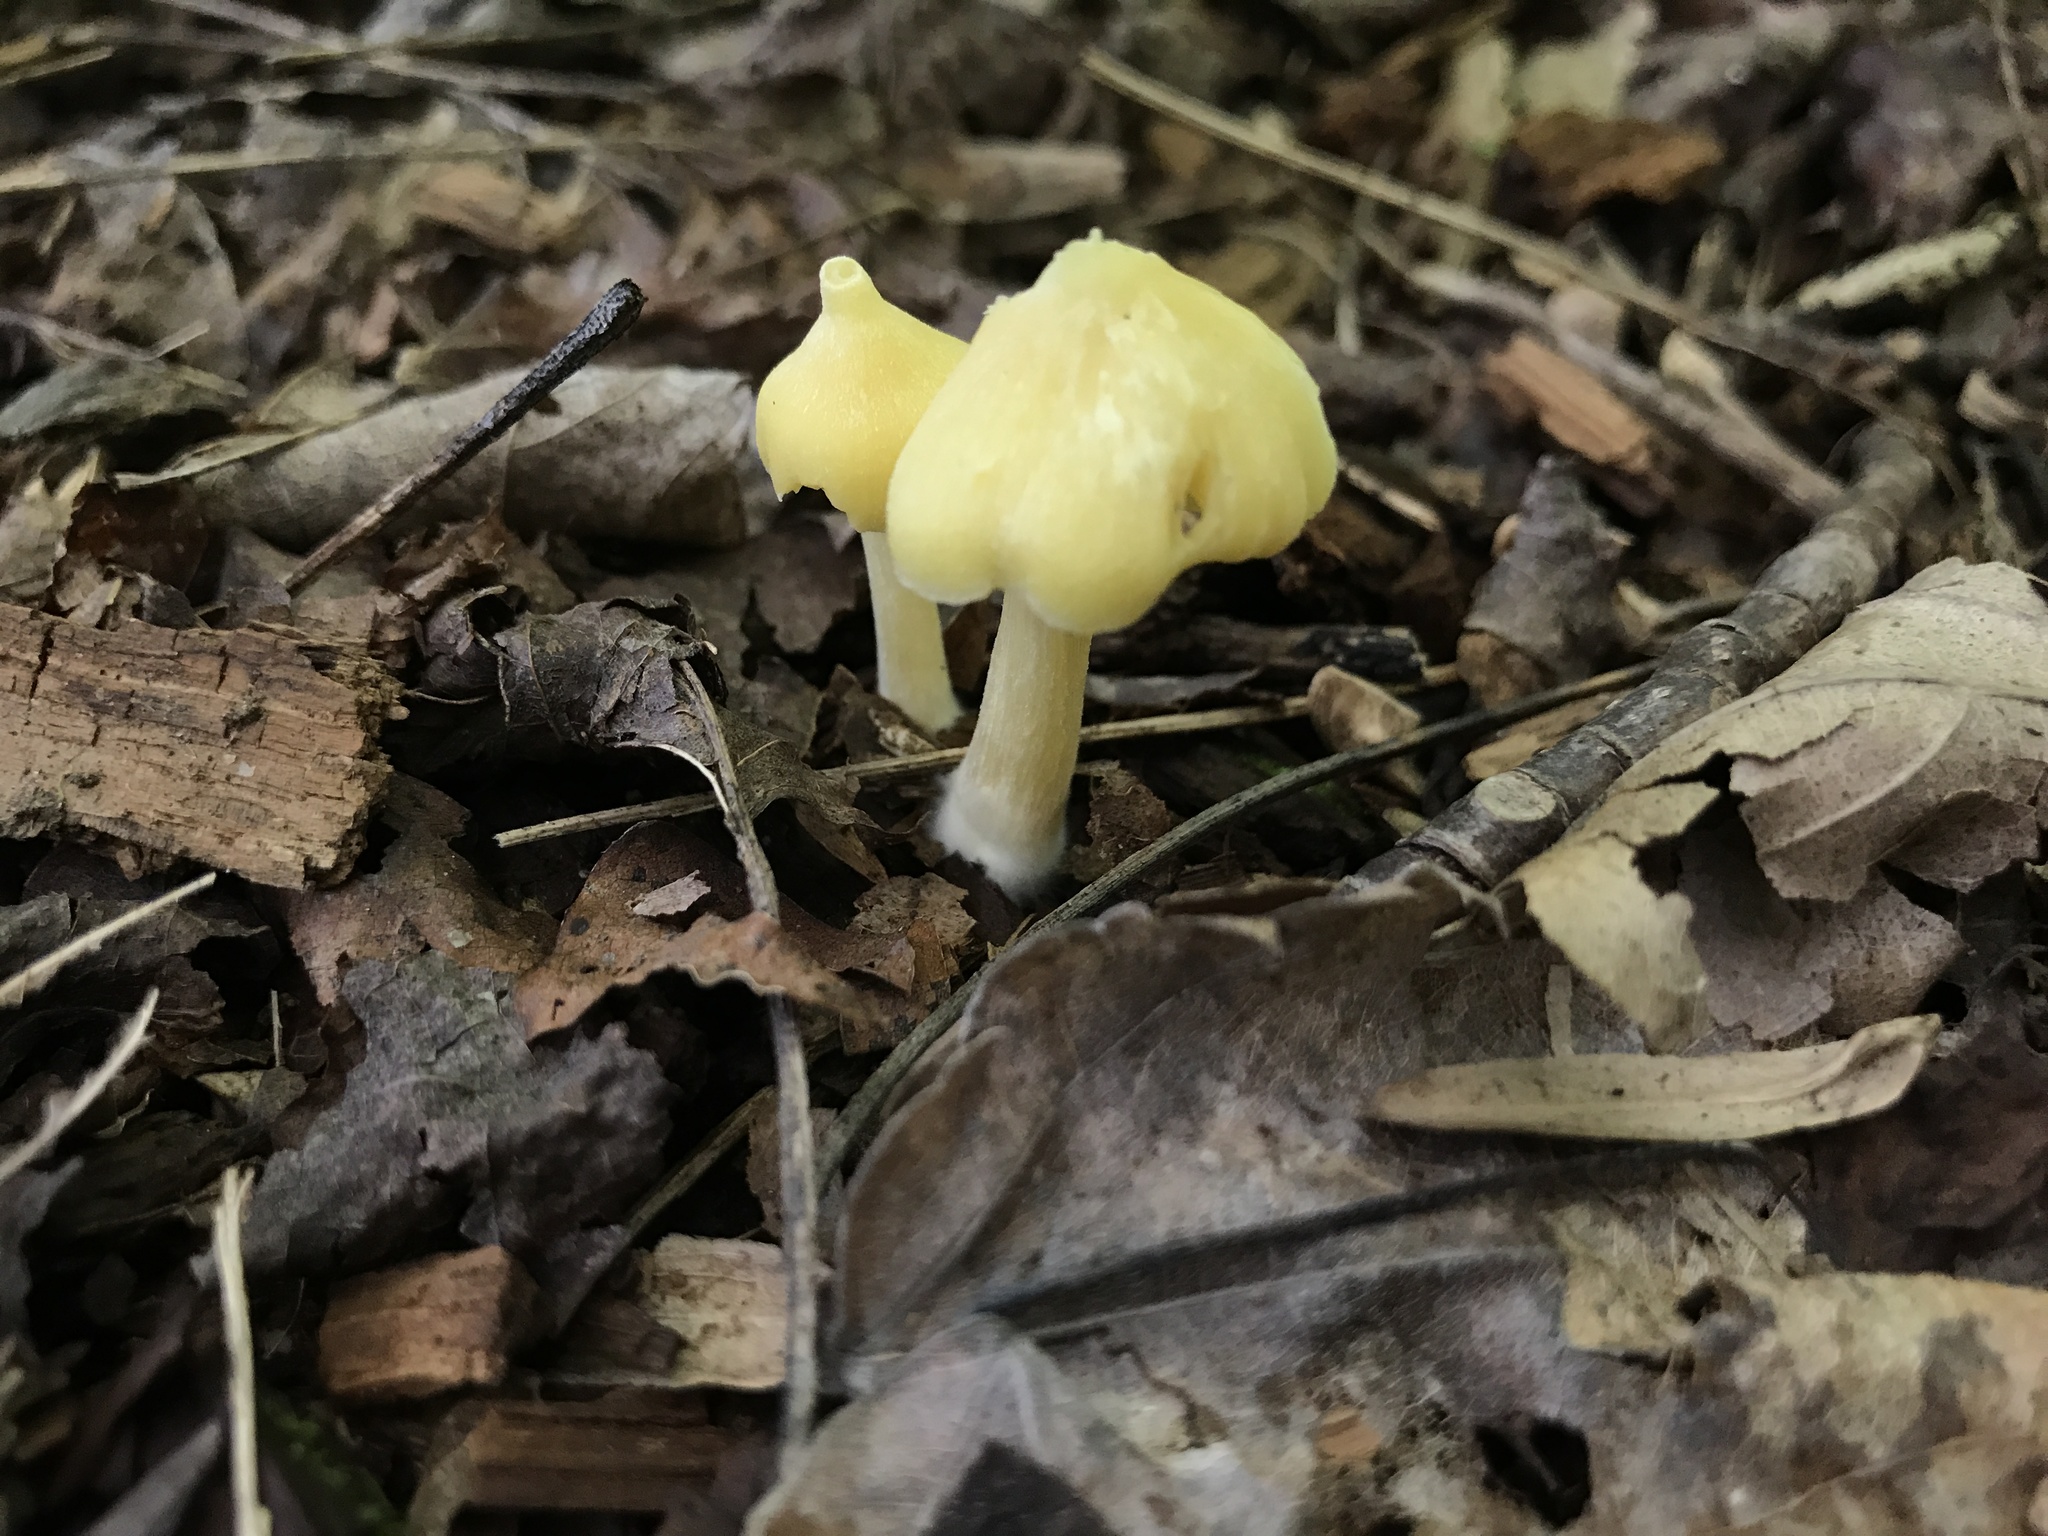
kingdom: Fungi
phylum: Basidiomycota
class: Agaricomycetes
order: Agaricales
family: Entolomataceae
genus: Entoloma
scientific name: Entoloma murrayi
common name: Yellow unicorn entoloma
